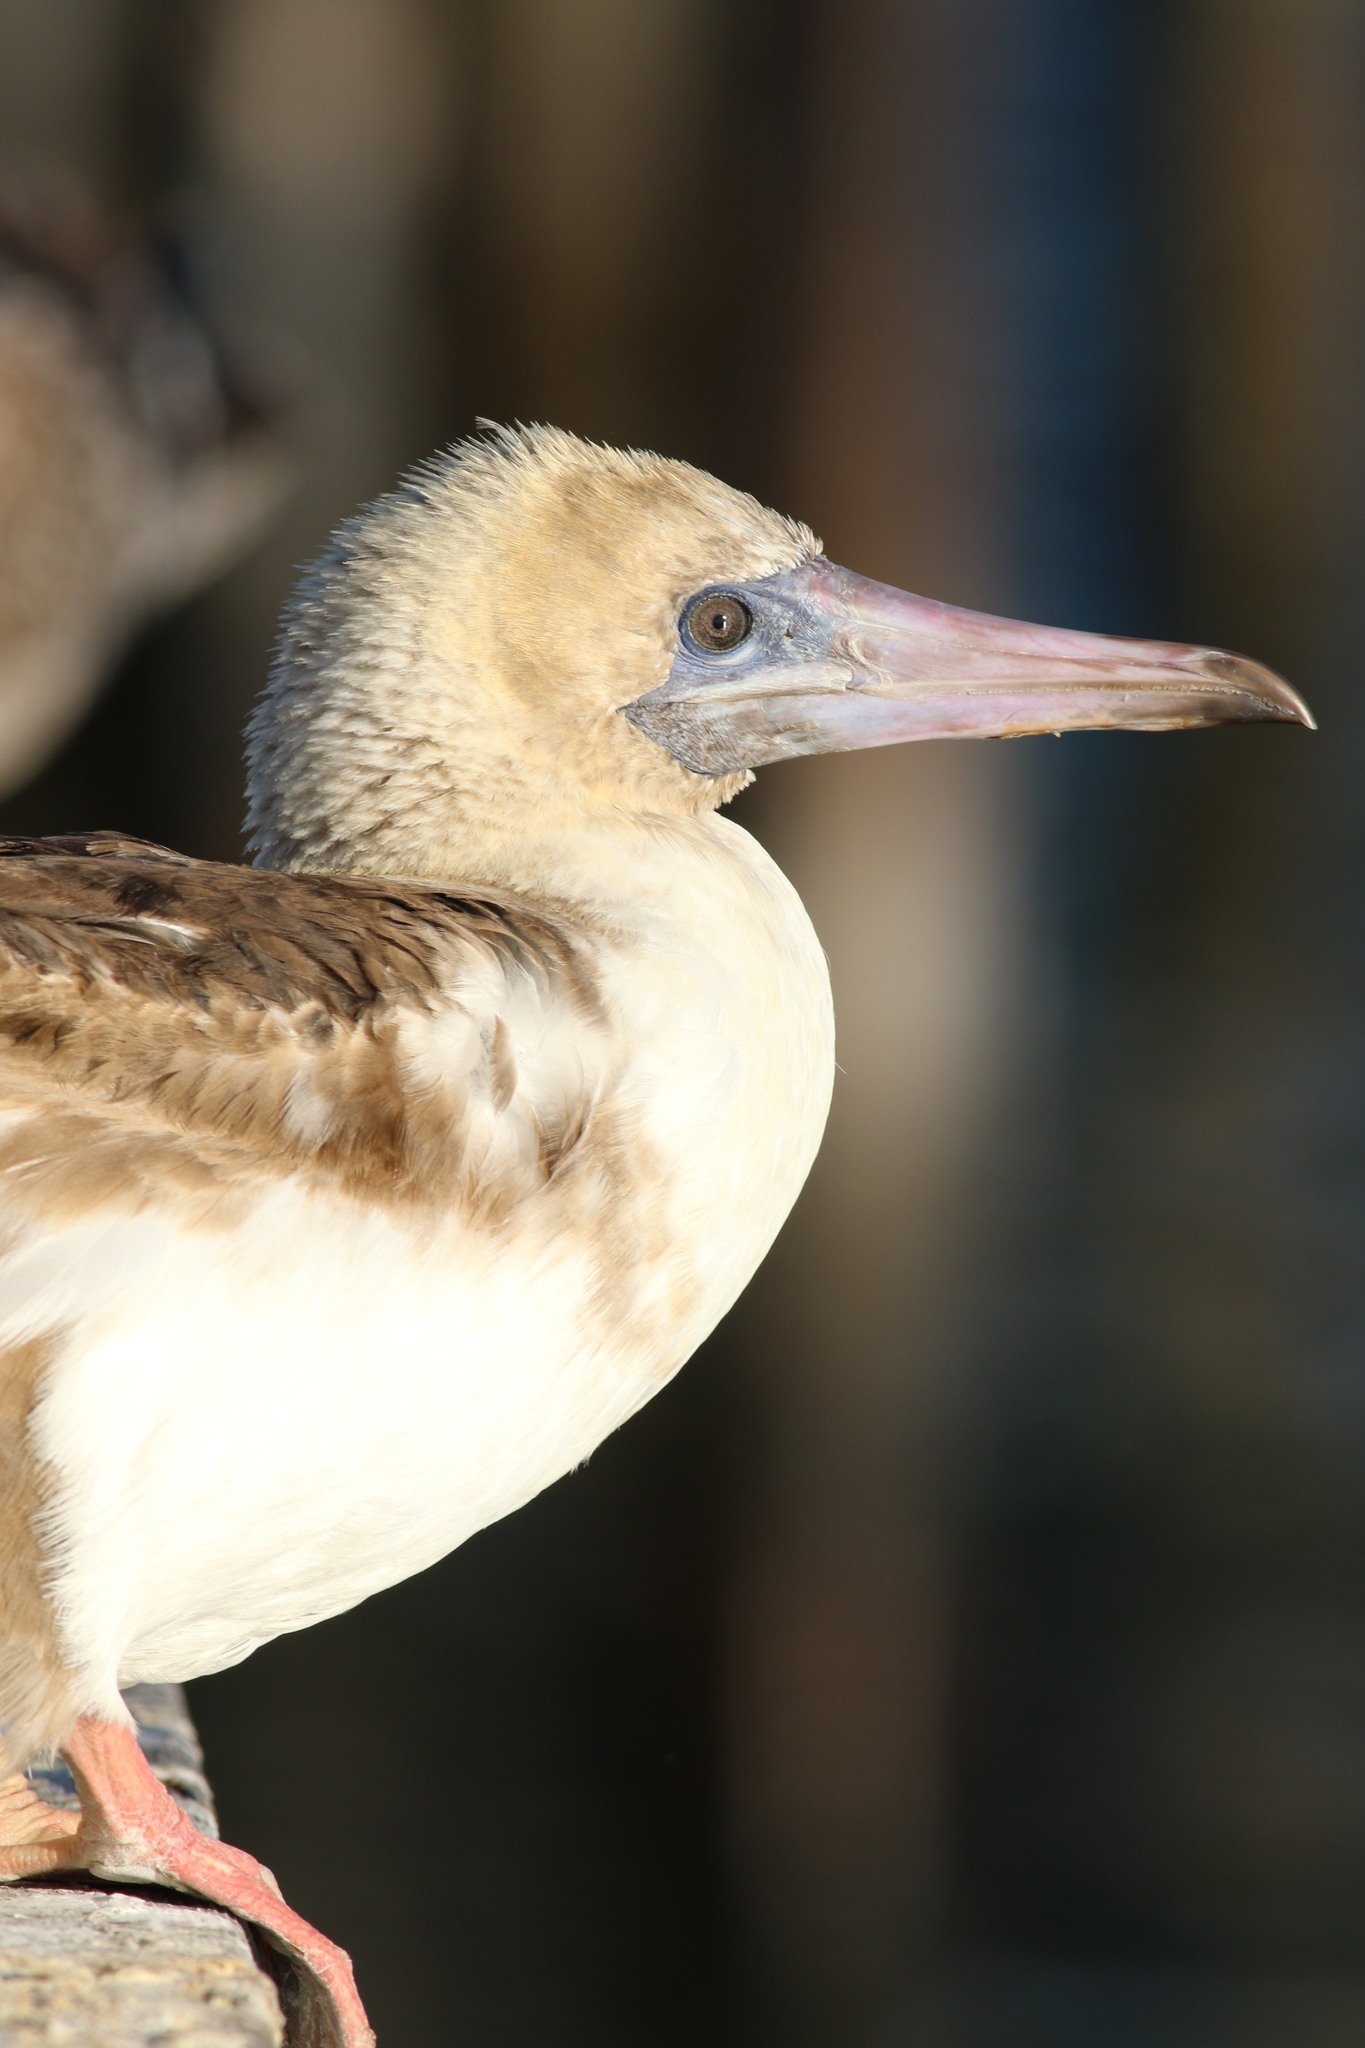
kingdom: Animalia
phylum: Chordata
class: Aves
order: Suliformes
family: Sulidae
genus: Sula
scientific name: Sula sula
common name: Red-footed booby
